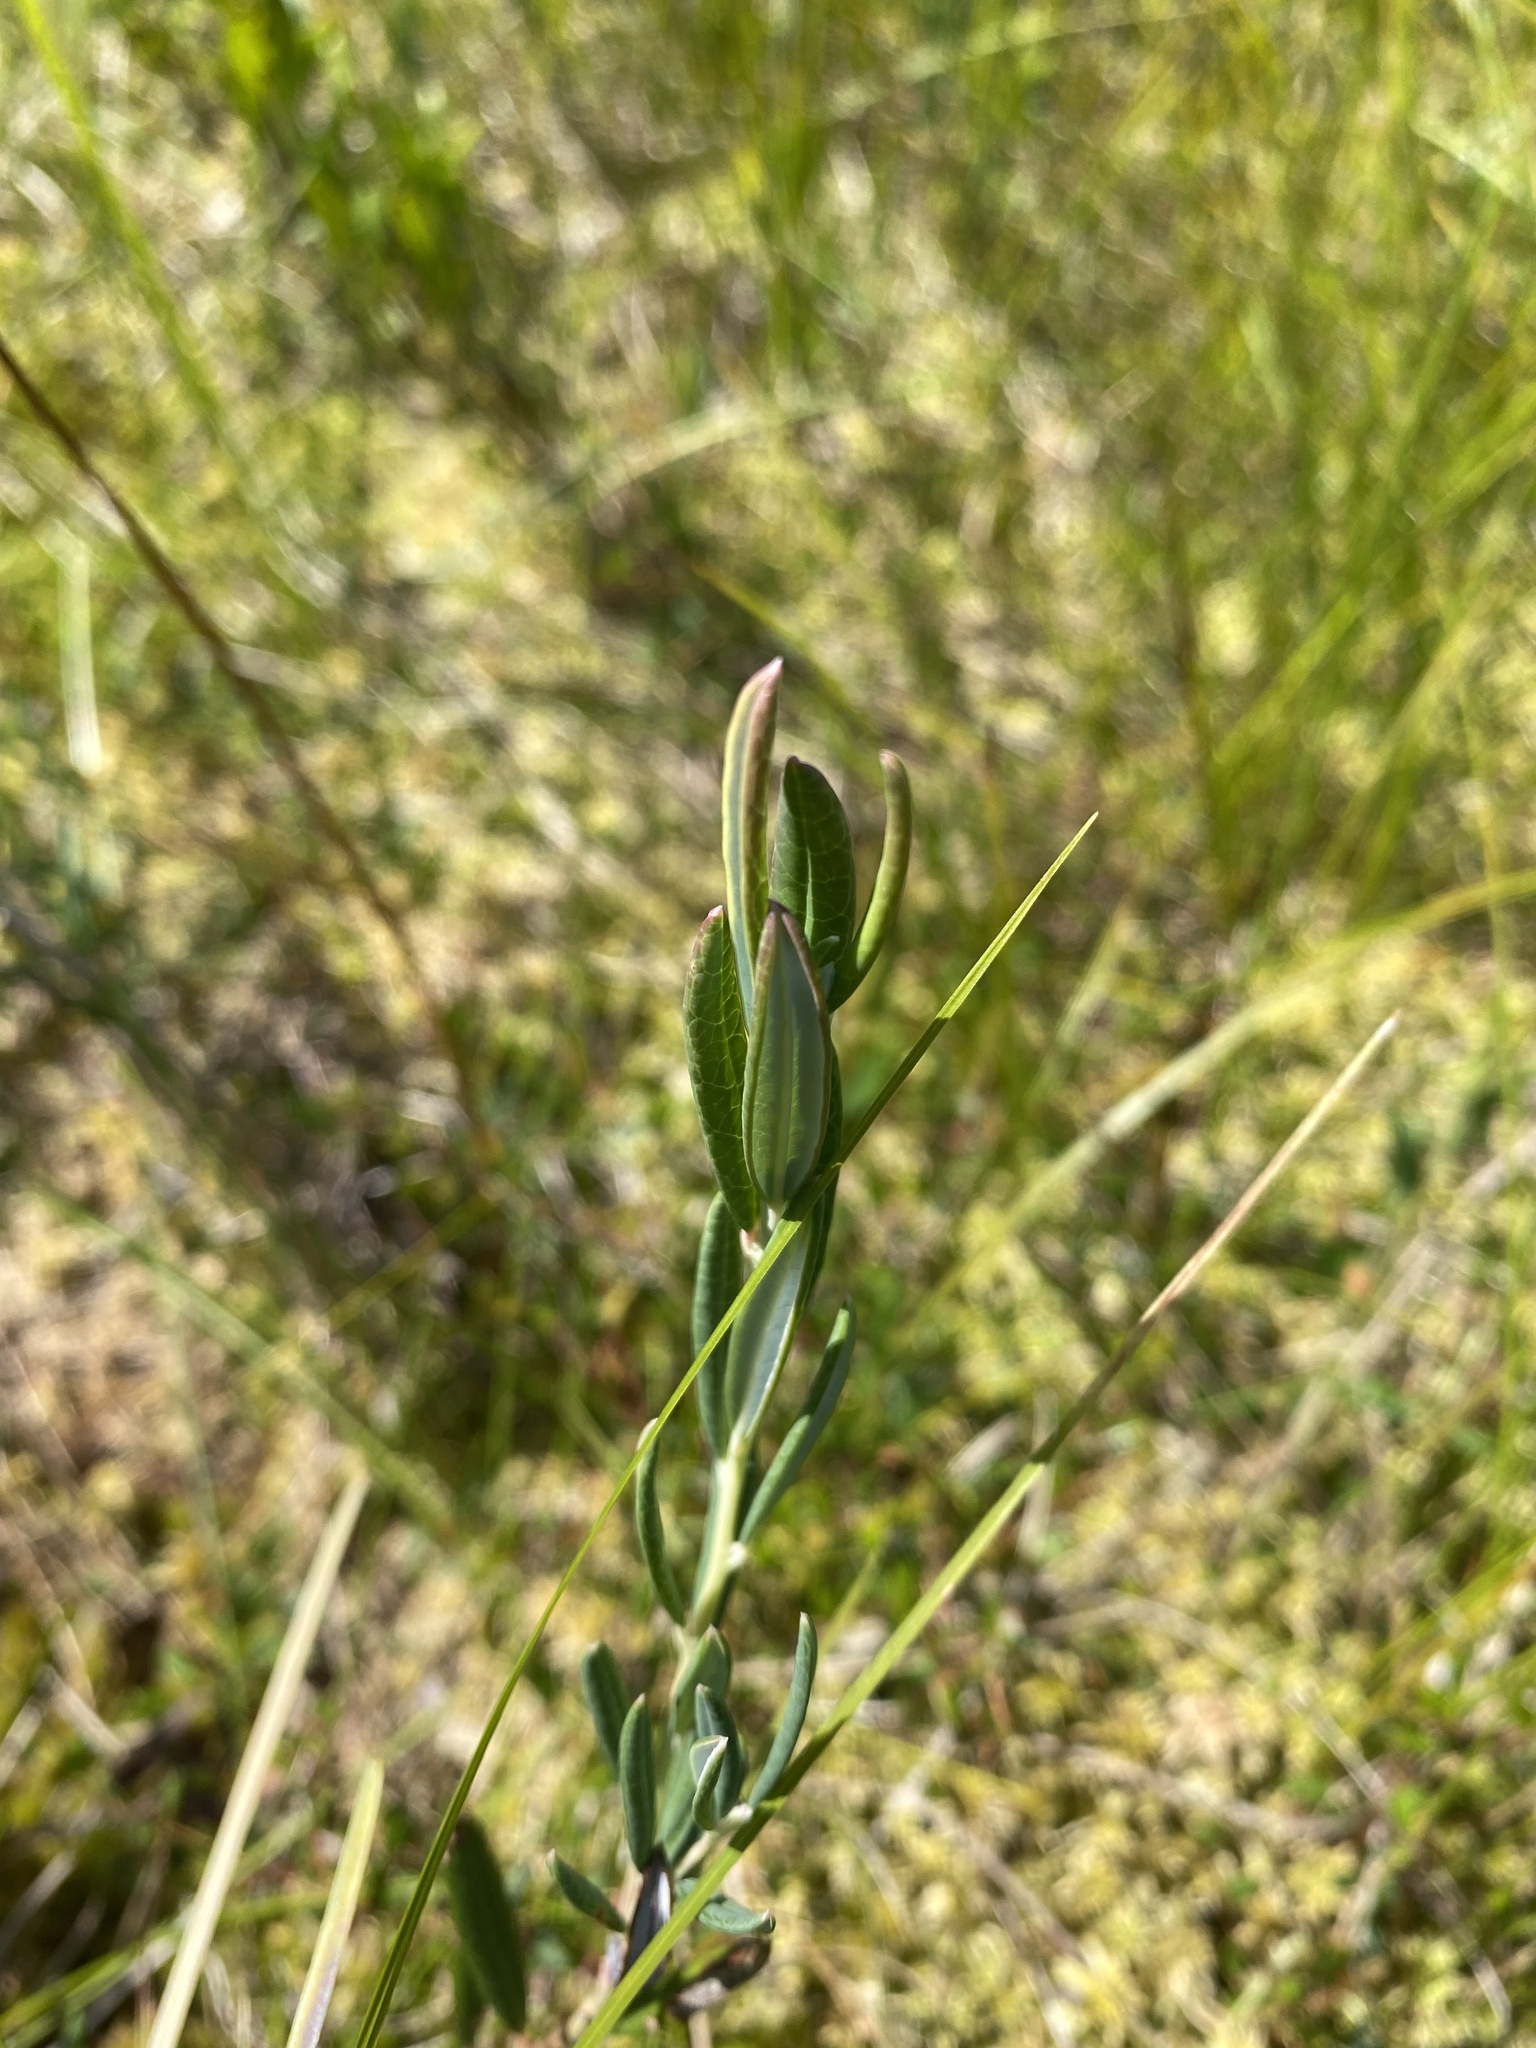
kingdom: Plantae
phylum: Tracheophyta
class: Magnoliopsida
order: Ericales
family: Ericaceae
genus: Andromeda
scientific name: Andromeda polifolia
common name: Bog-rosemary
